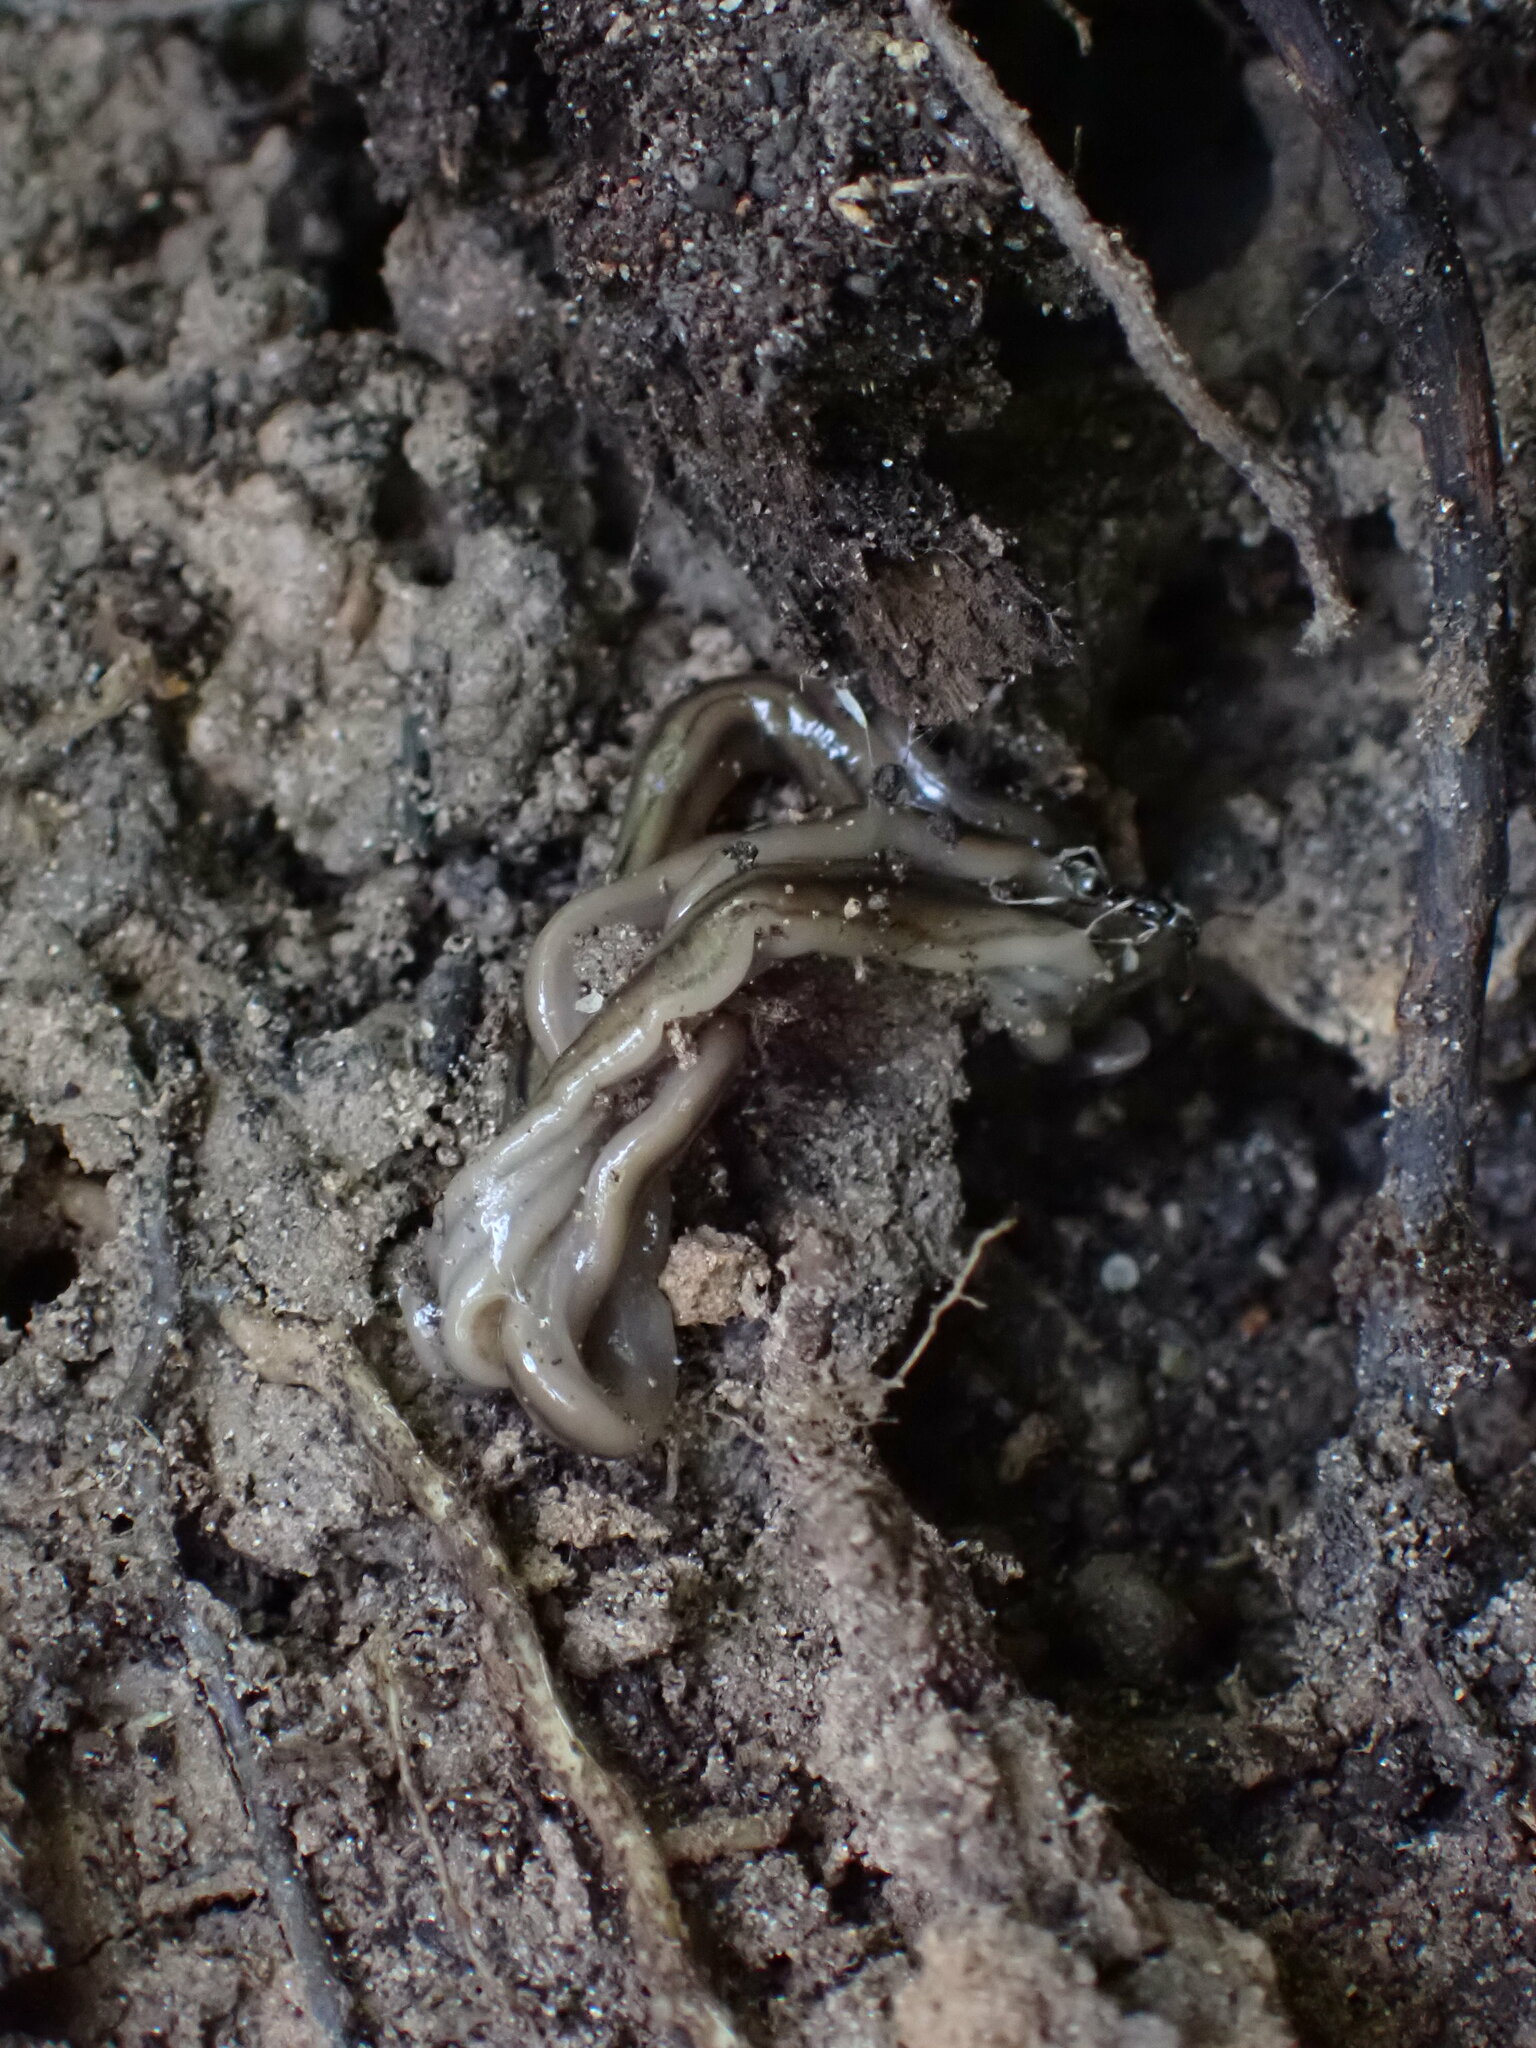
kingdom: Animalia
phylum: Platyhelminthes
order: Tricladida
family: Geoplanidae
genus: Bipalium
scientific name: Bipalium kewense
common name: Hammerhead flatworm
